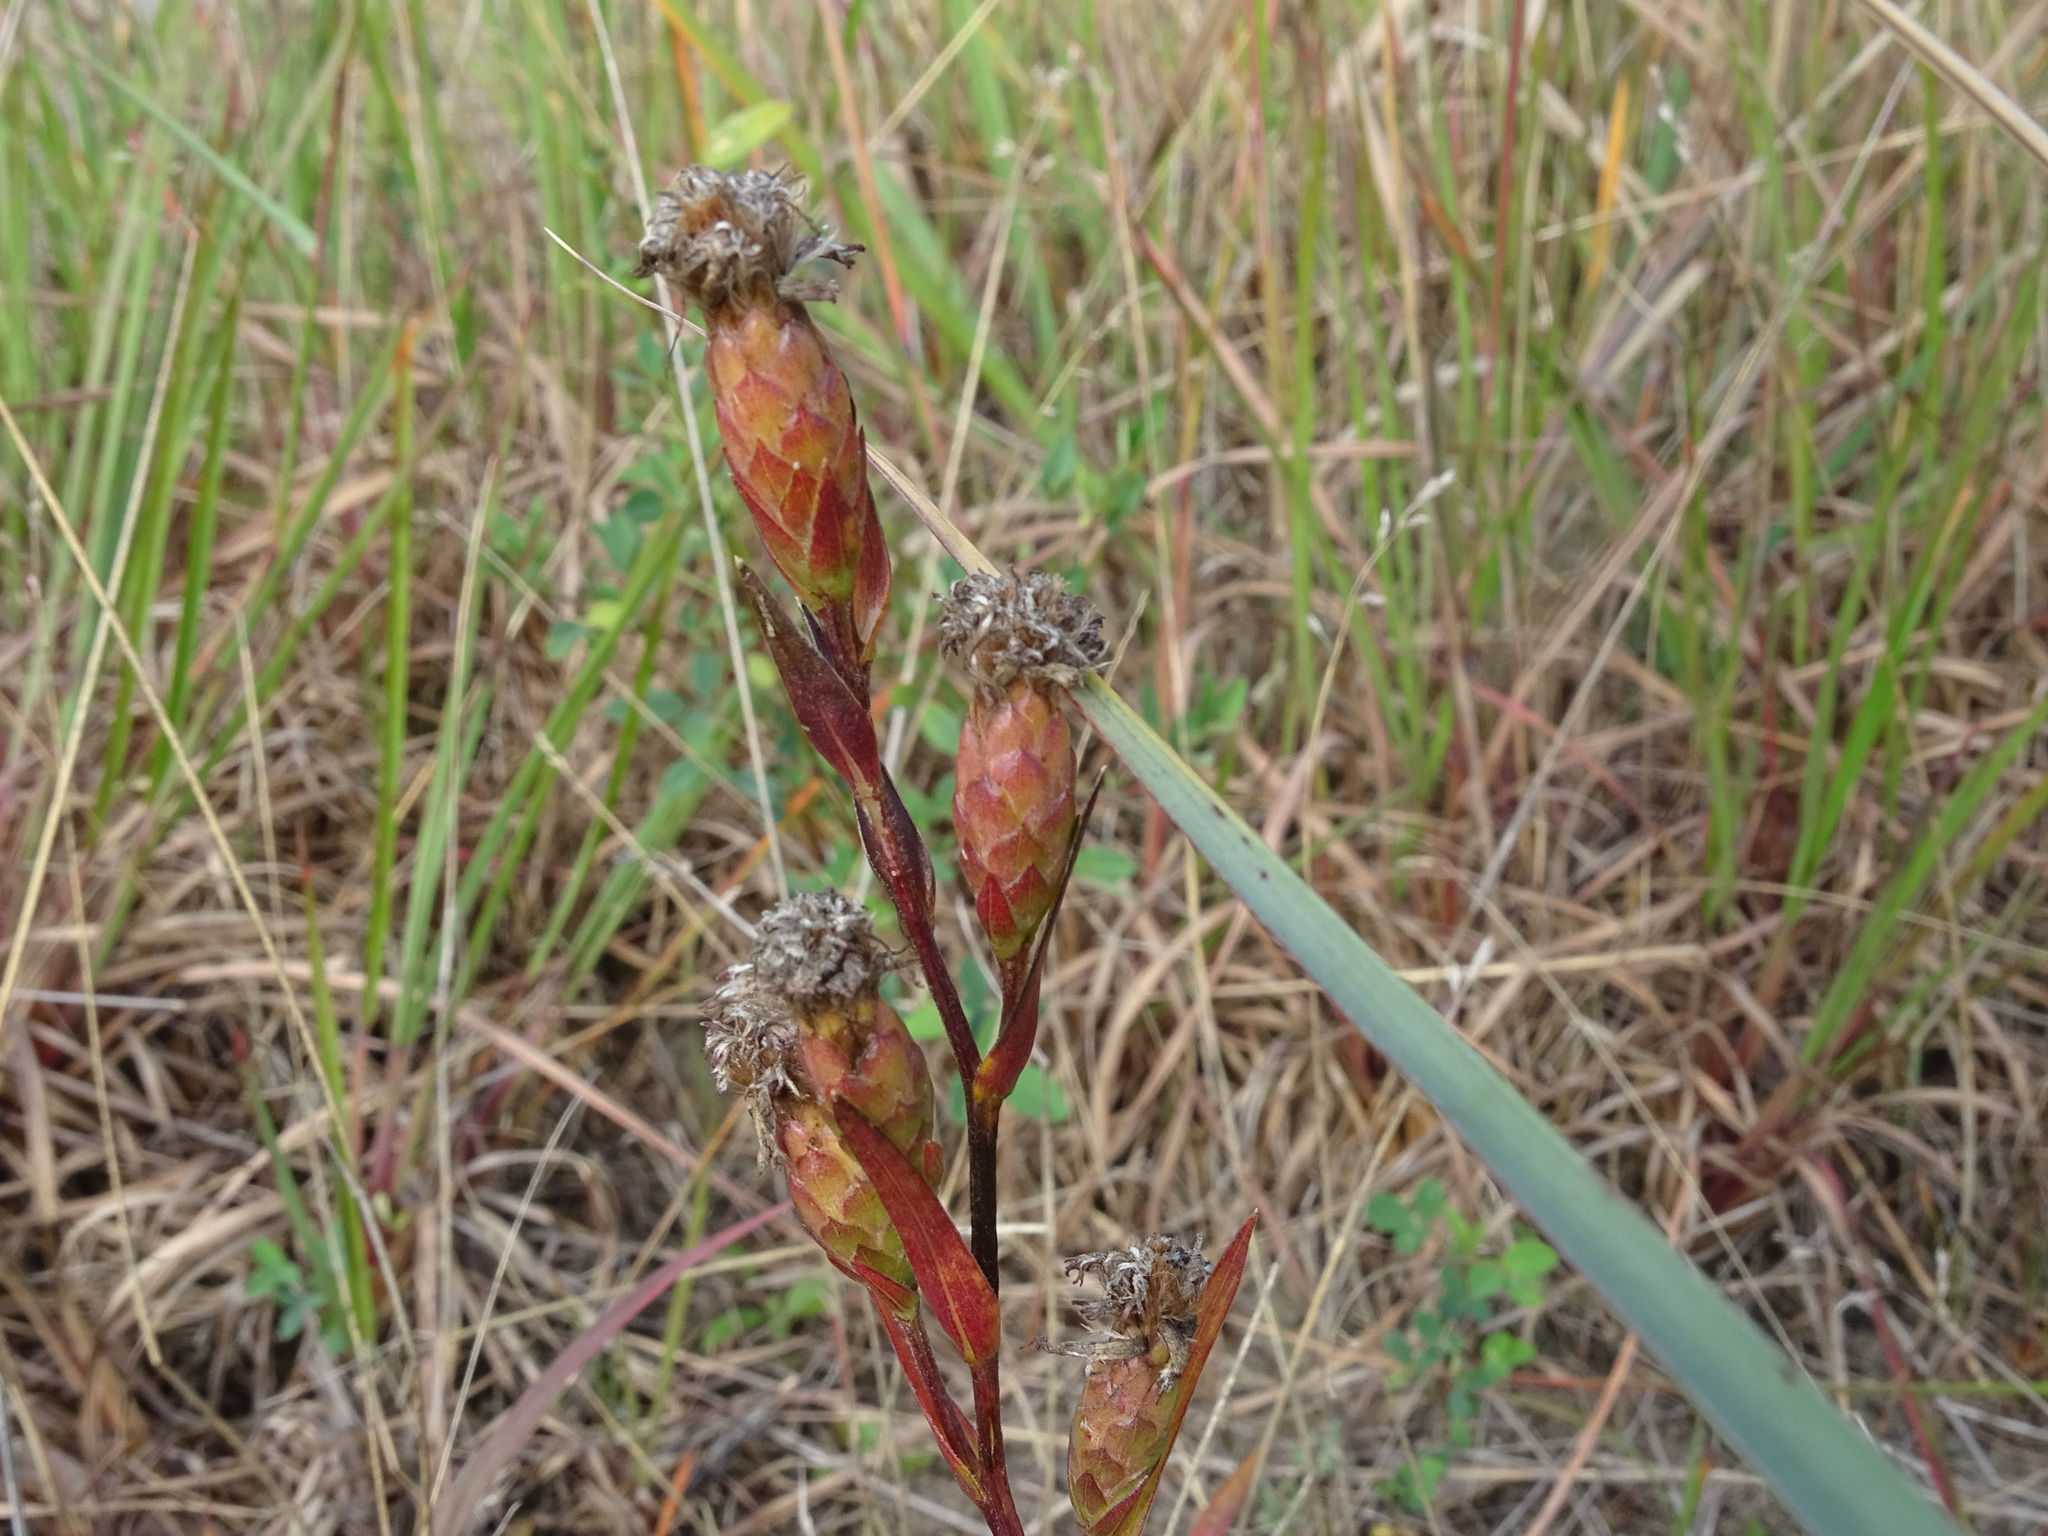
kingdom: Plantae
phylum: Tracheophyta
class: Magnoliopsida
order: Asterales
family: Asteraceae
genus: Liatris
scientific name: Liatris cylindracea
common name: Few-head blazingstar
